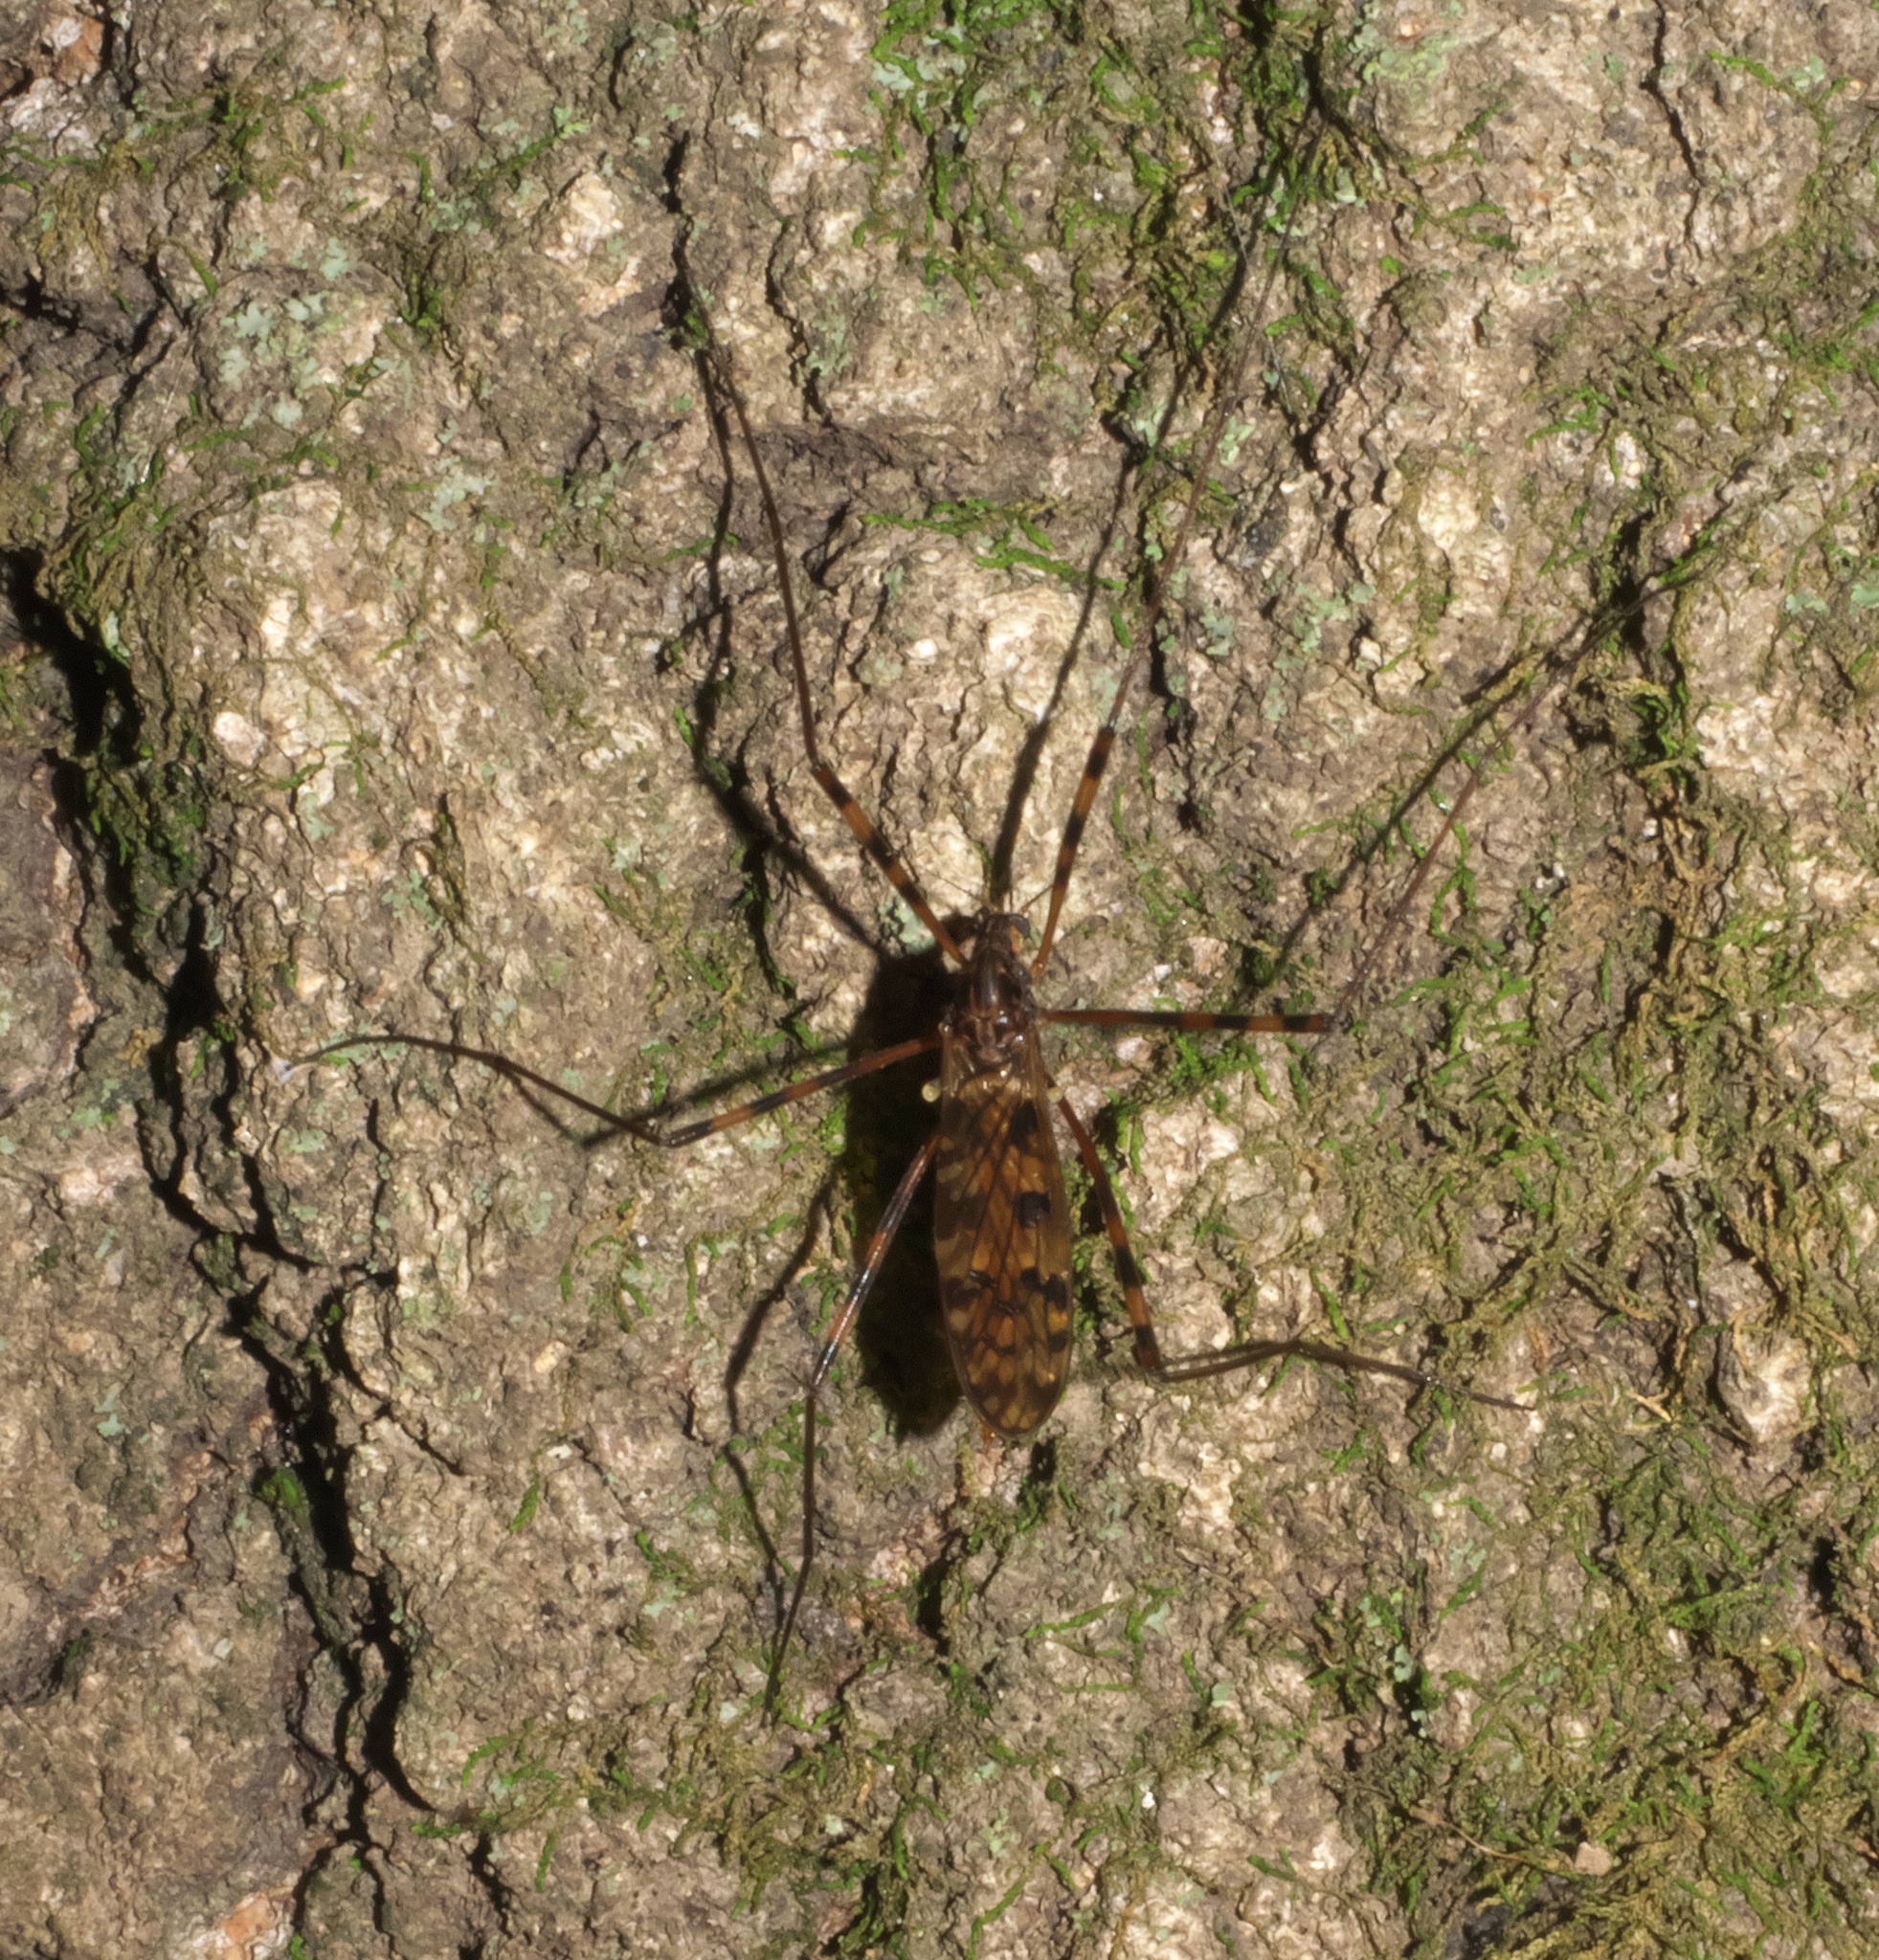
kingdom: Animalia
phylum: Arthropoda
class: Insecta
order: Diptera
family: Limoniidae
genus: Metalimnobia
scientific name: Metalimnobia immatura
